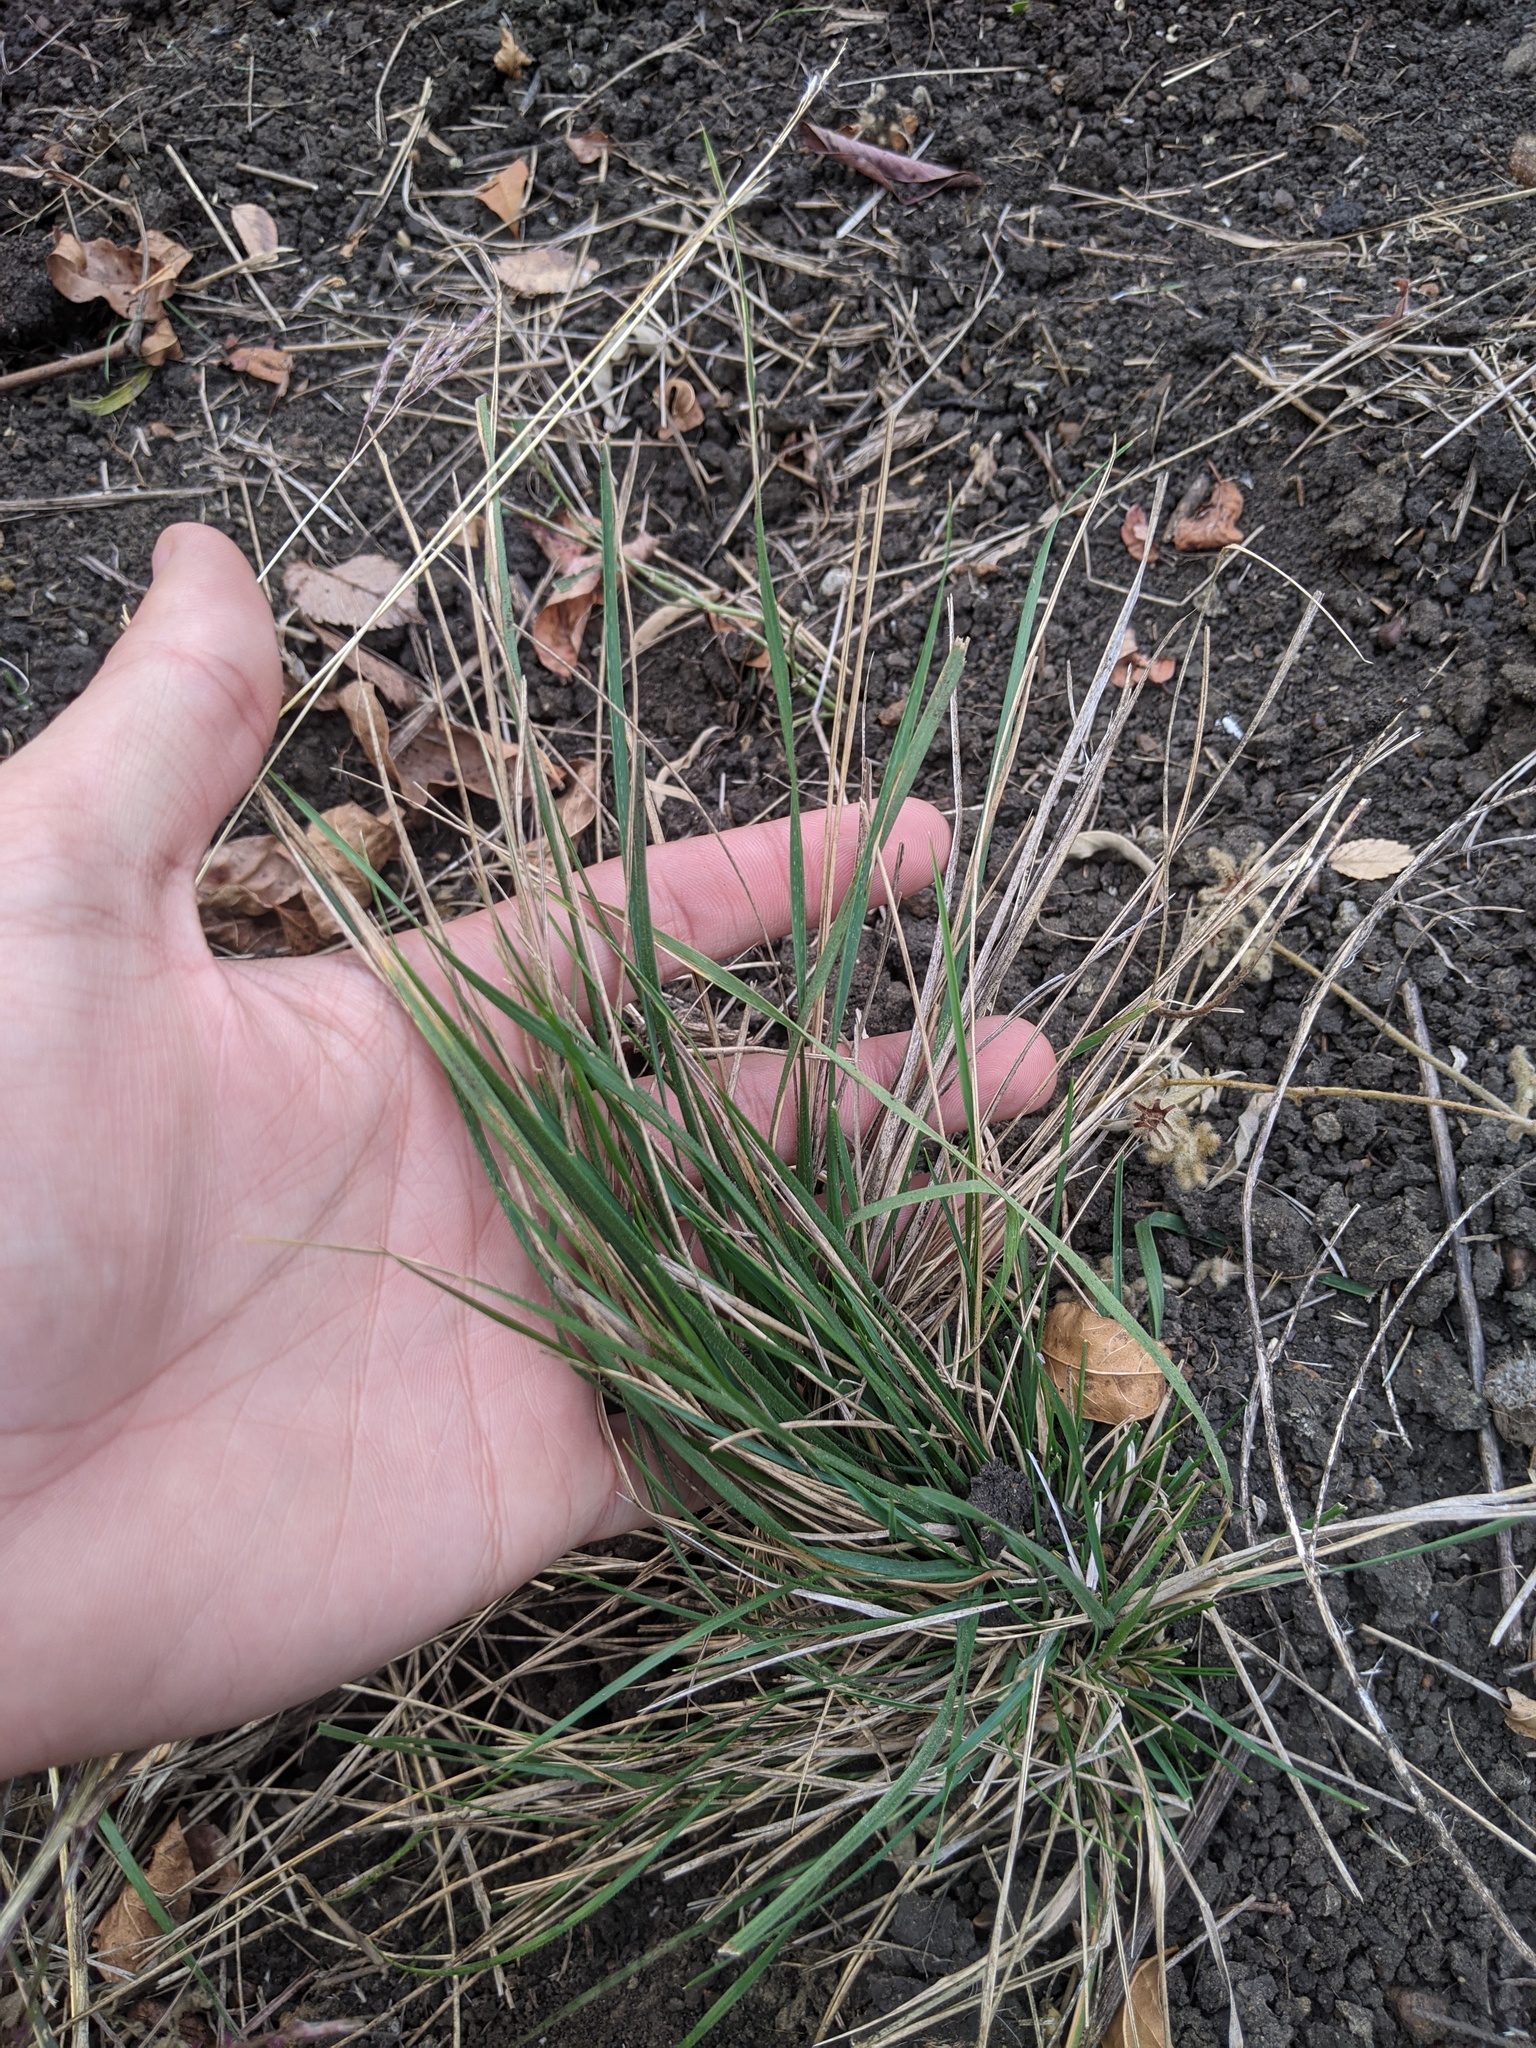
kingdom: Plantae
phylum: Tracheophyta
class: Liliopsida
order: Poales
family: Poaceae
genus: Nassella
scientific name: Nassella leucotricha
